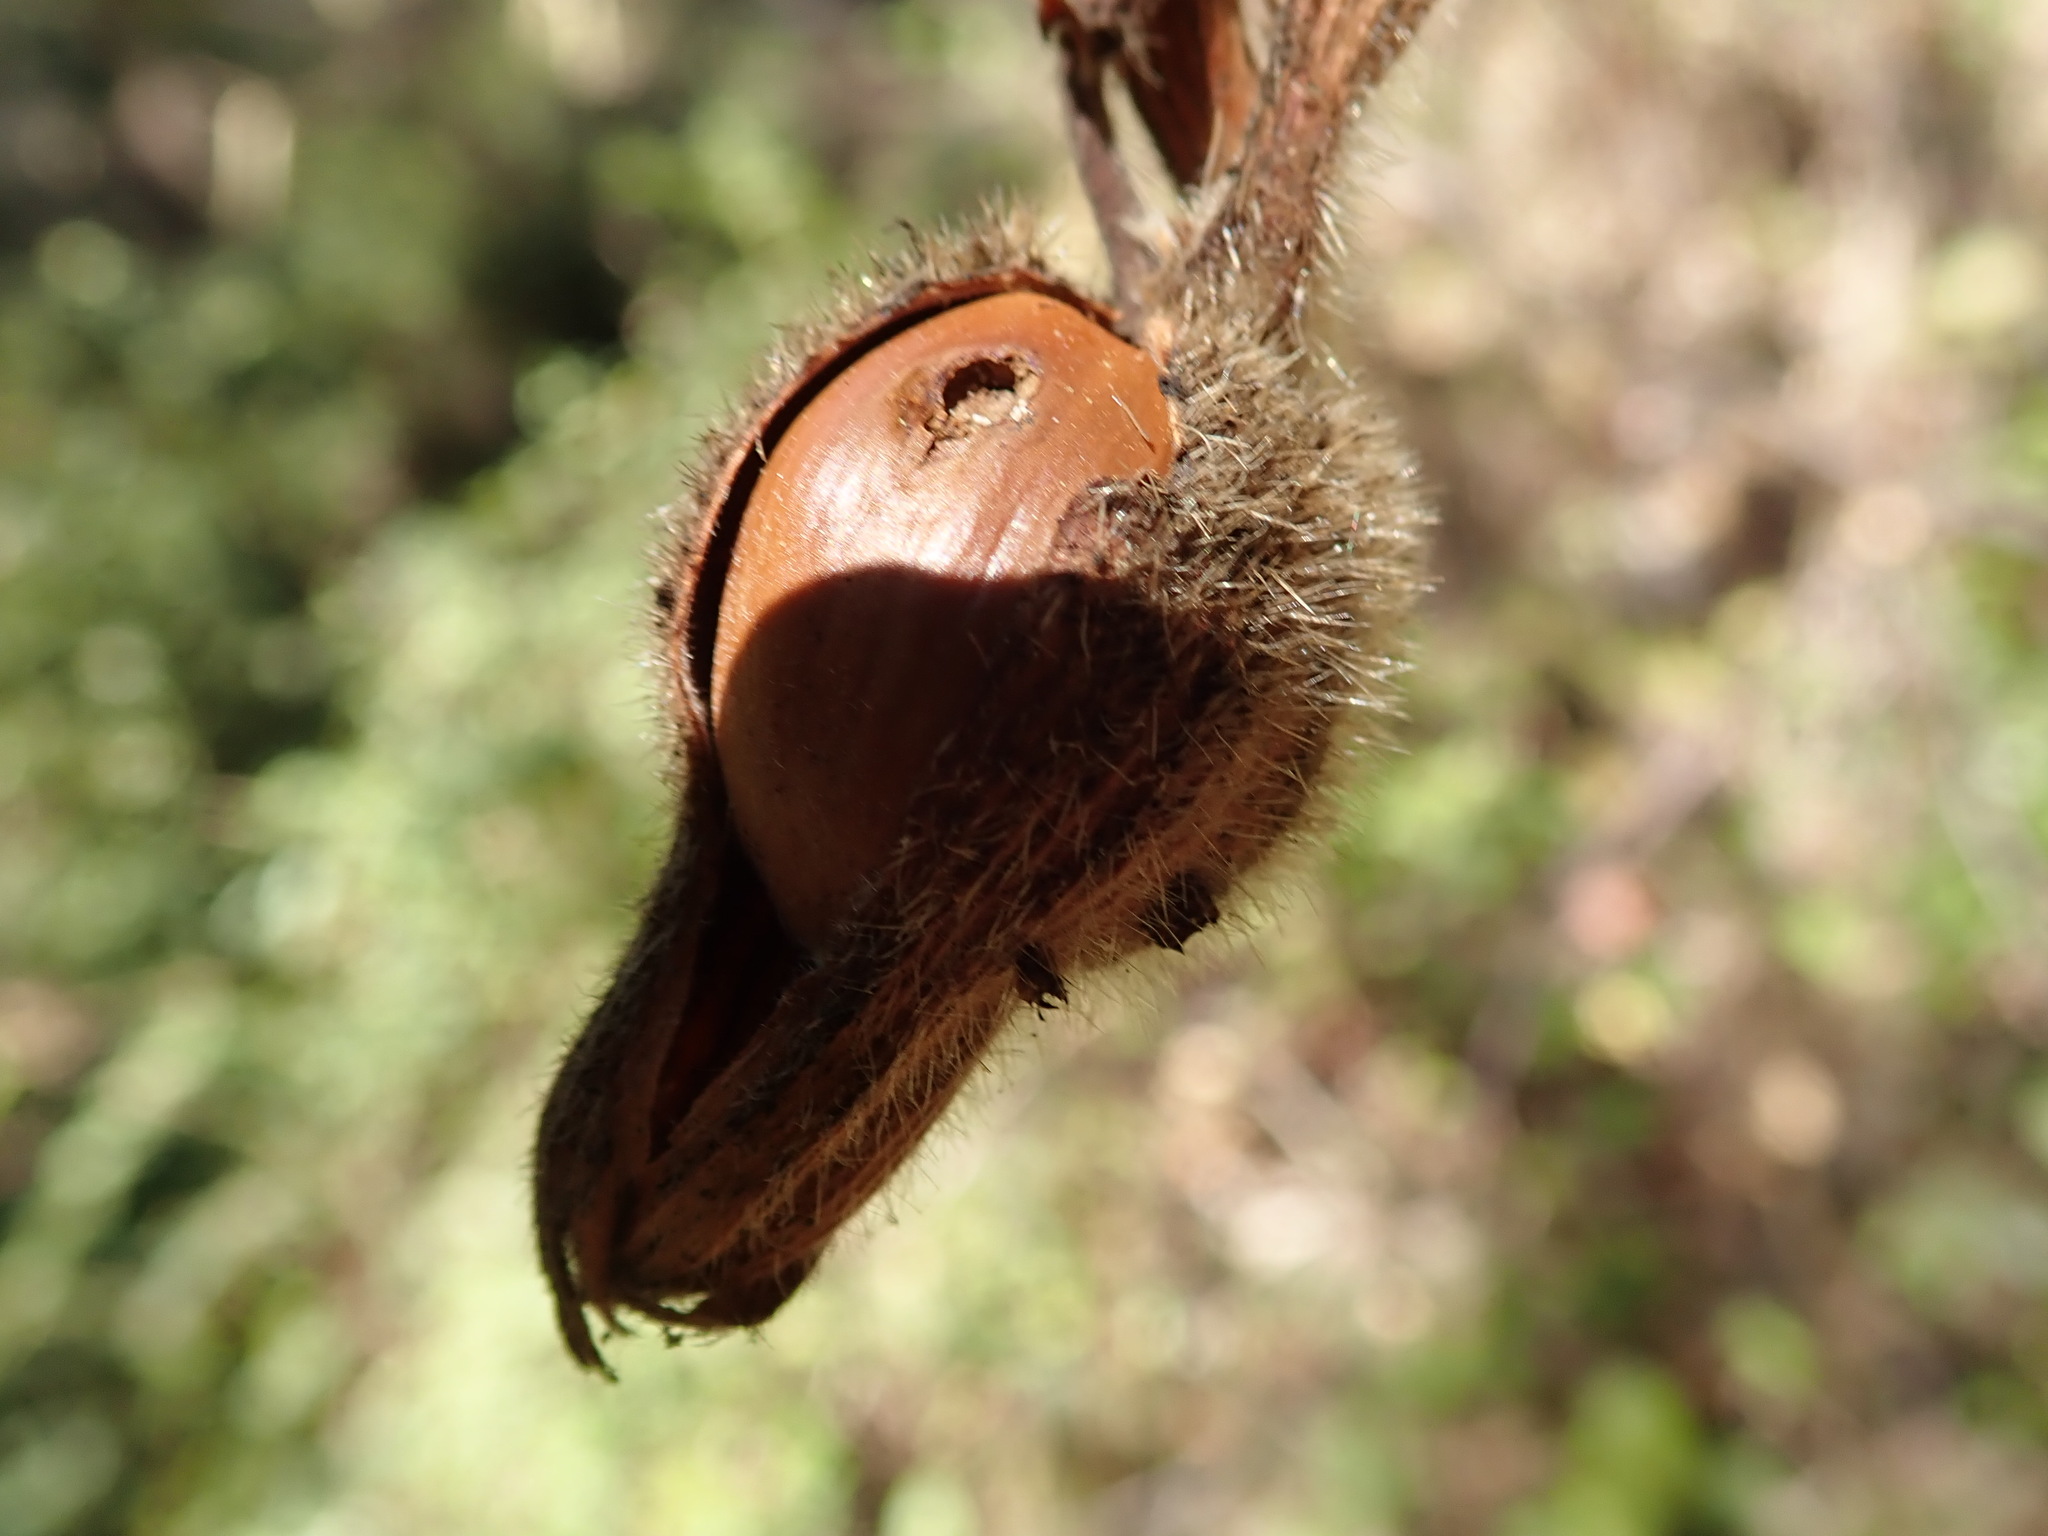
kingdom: Plantae
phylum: Tracheophyta
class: Magnoliopsida
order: Fagales
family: Betulaceae
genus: Corylus
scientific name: Corylus cornuta
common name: Beaked hazel
